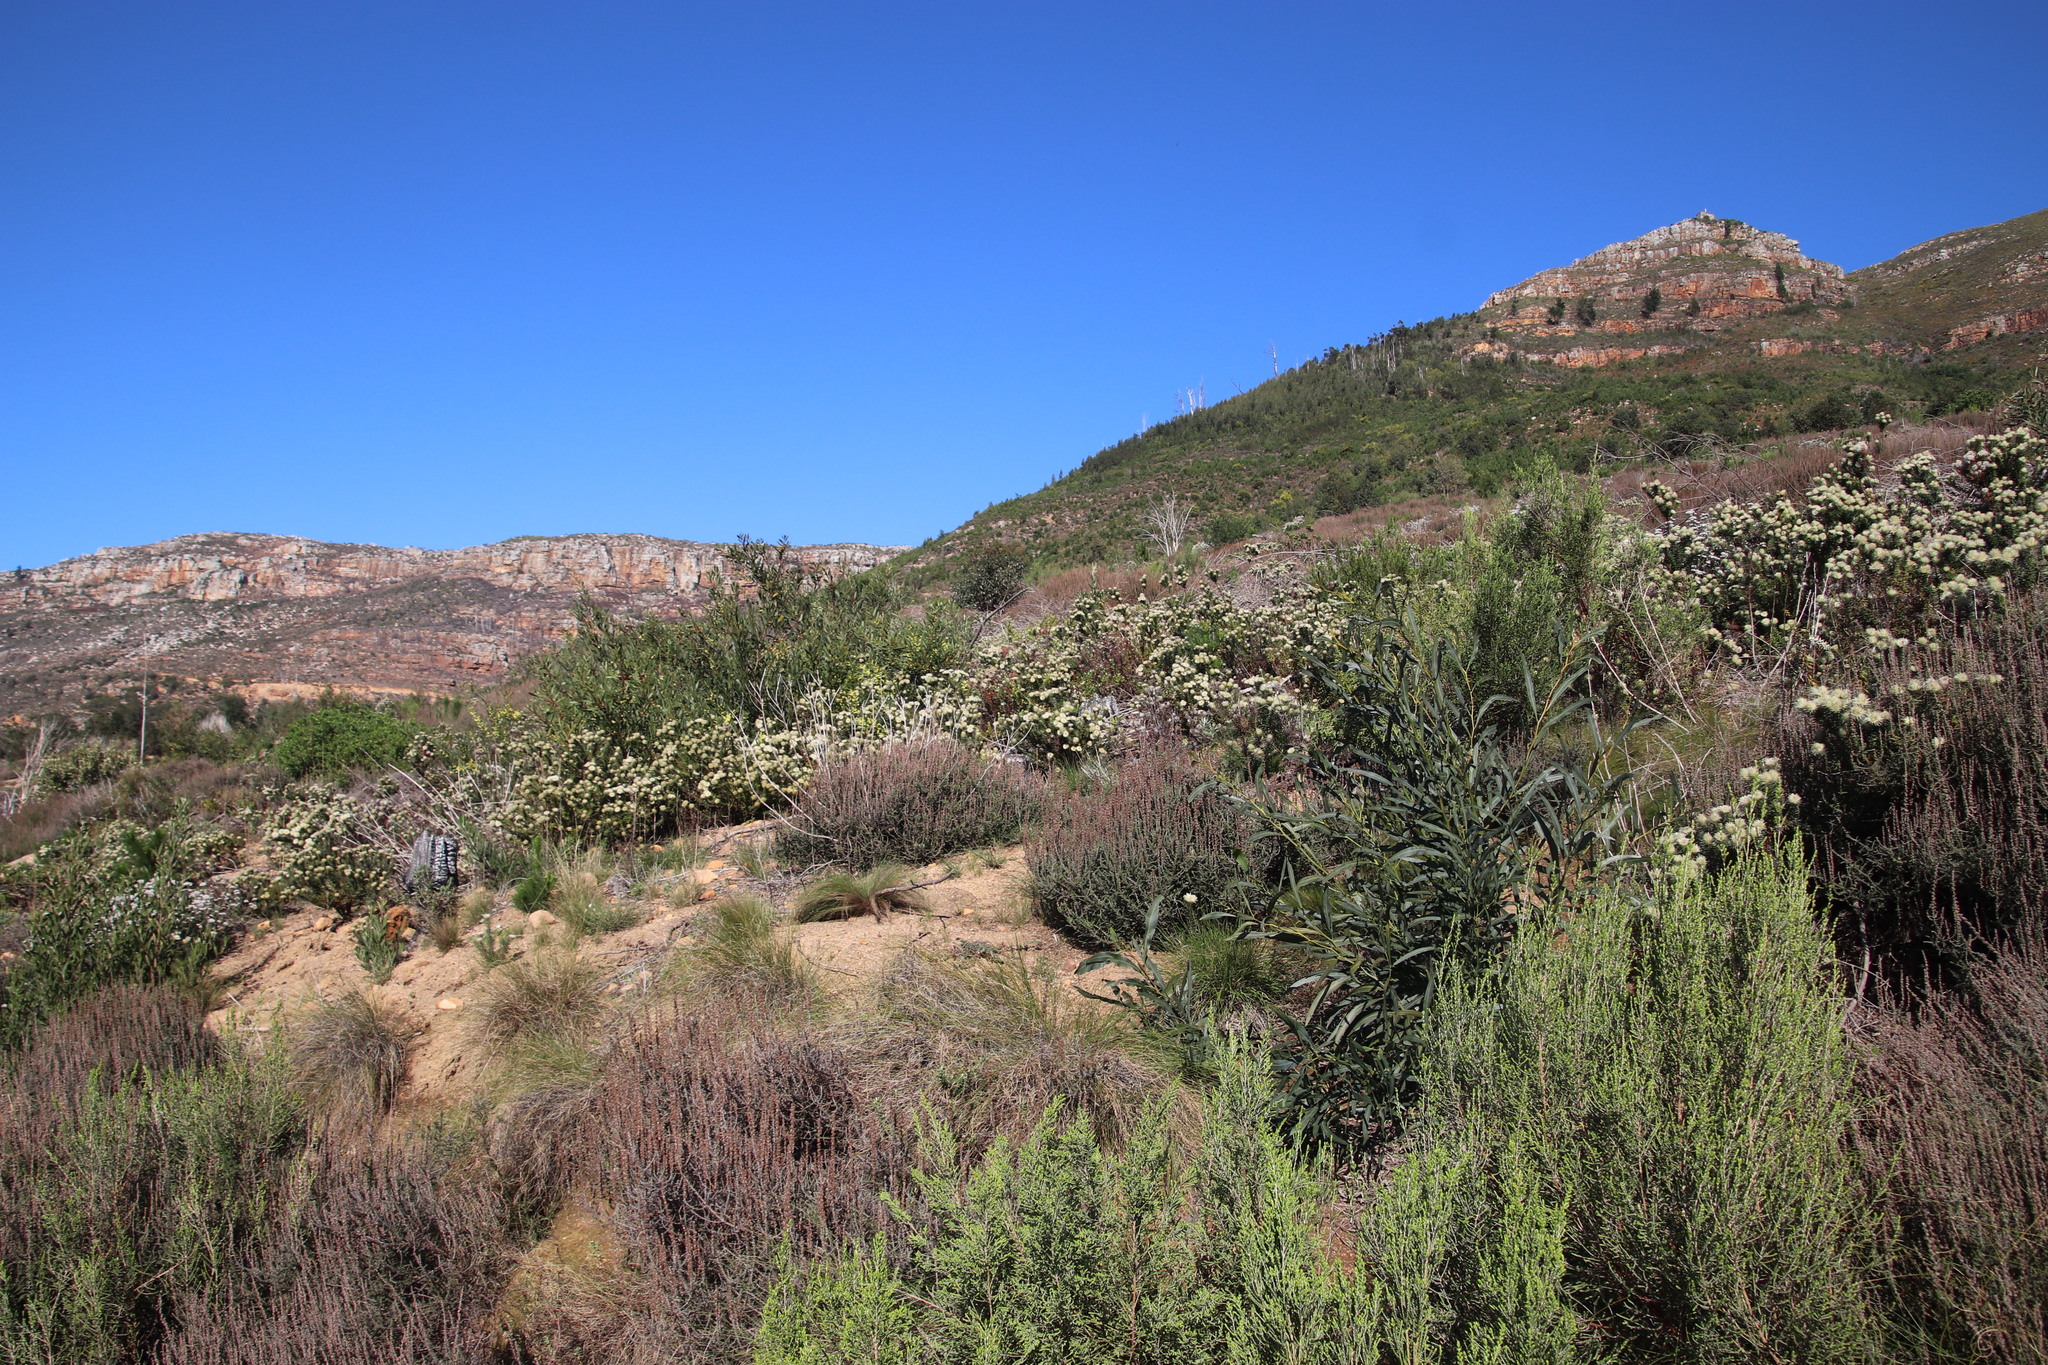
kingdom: Plantae
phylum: Tracheophyta
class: Magnoliopsida
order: Asterales
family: Asteraceae
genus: Seriphium
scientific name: Seriphium cinereum
